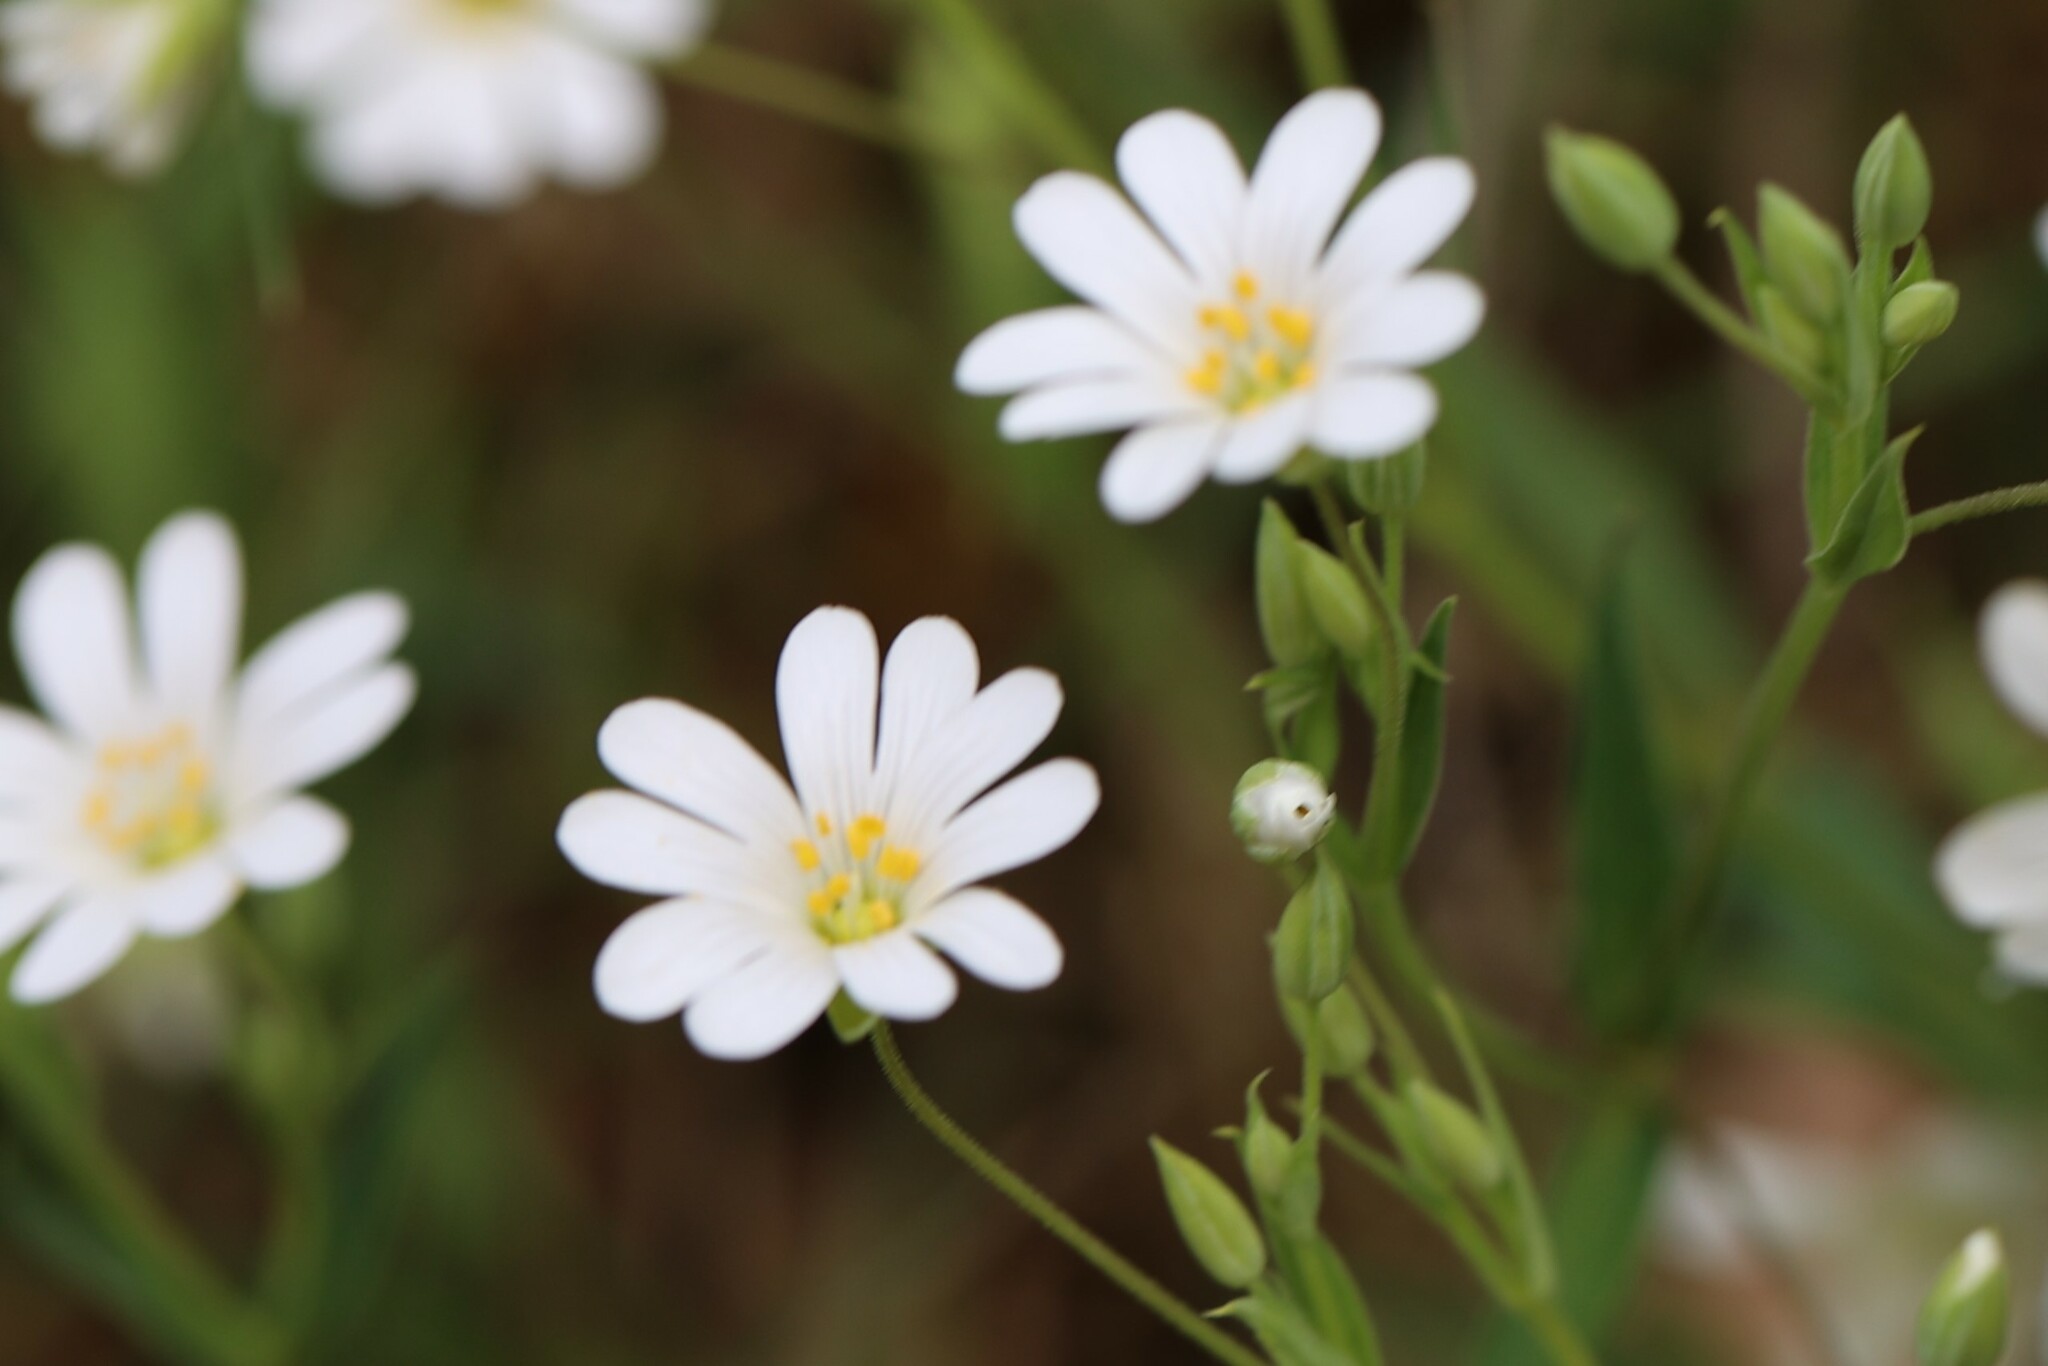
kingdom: Plantae
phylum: Tracheophyta
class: Magnoliopsida
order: Caryophyllales
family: Caryophyllaceae
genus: Rabelera
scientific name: Rabelera holostea
